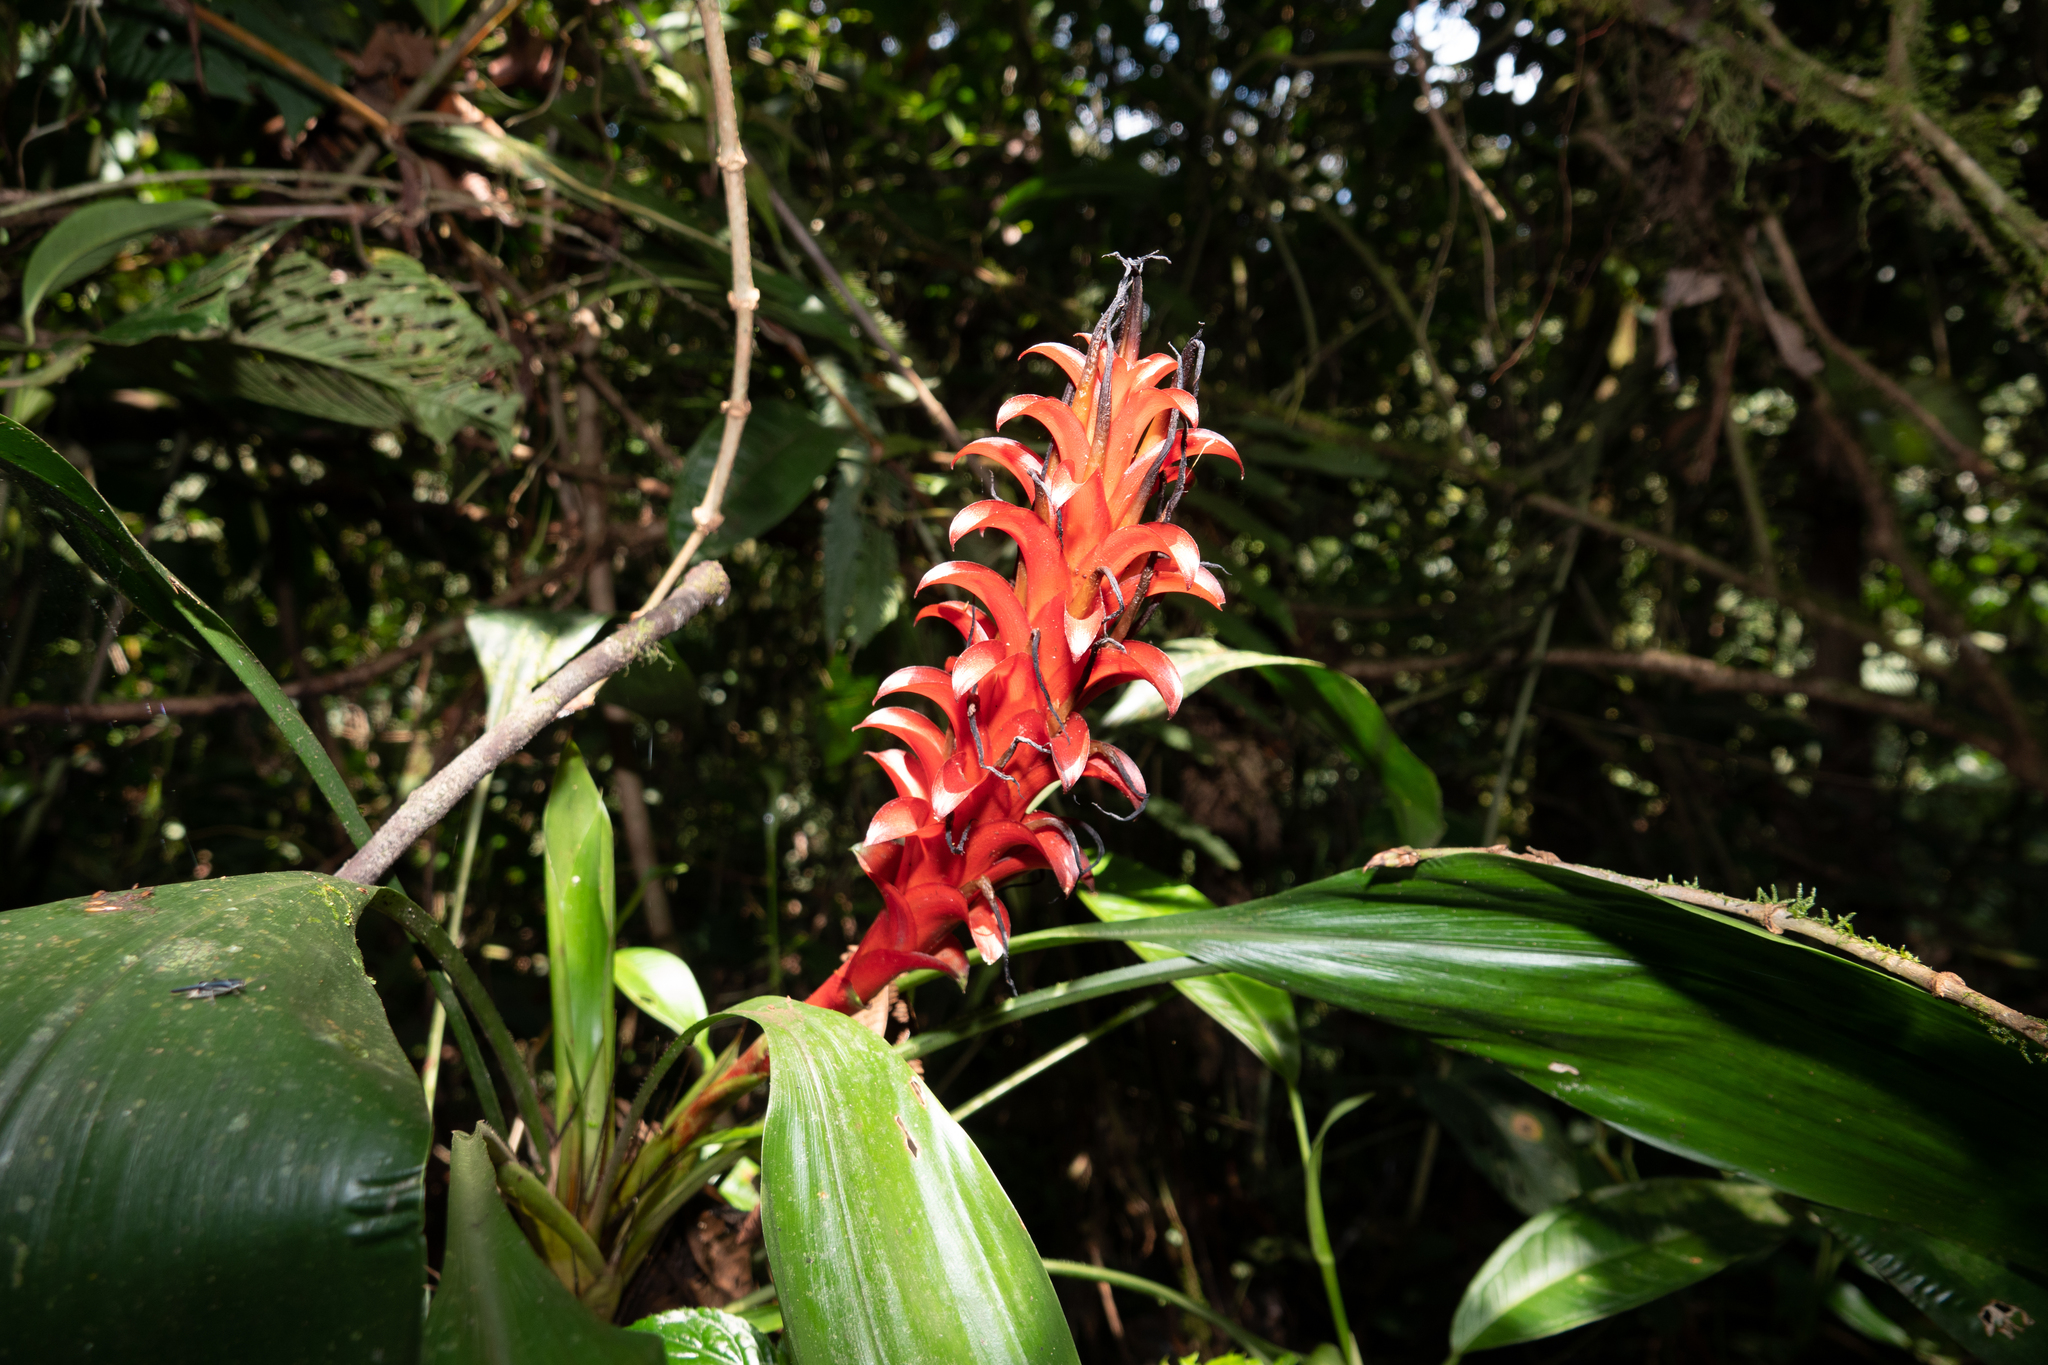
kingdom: Plantae
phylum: Tracheophyta
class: Liliopsida
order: Poales
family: Bromeliaceae
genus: Pitcairnia
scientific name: Pitcairnia nigra
